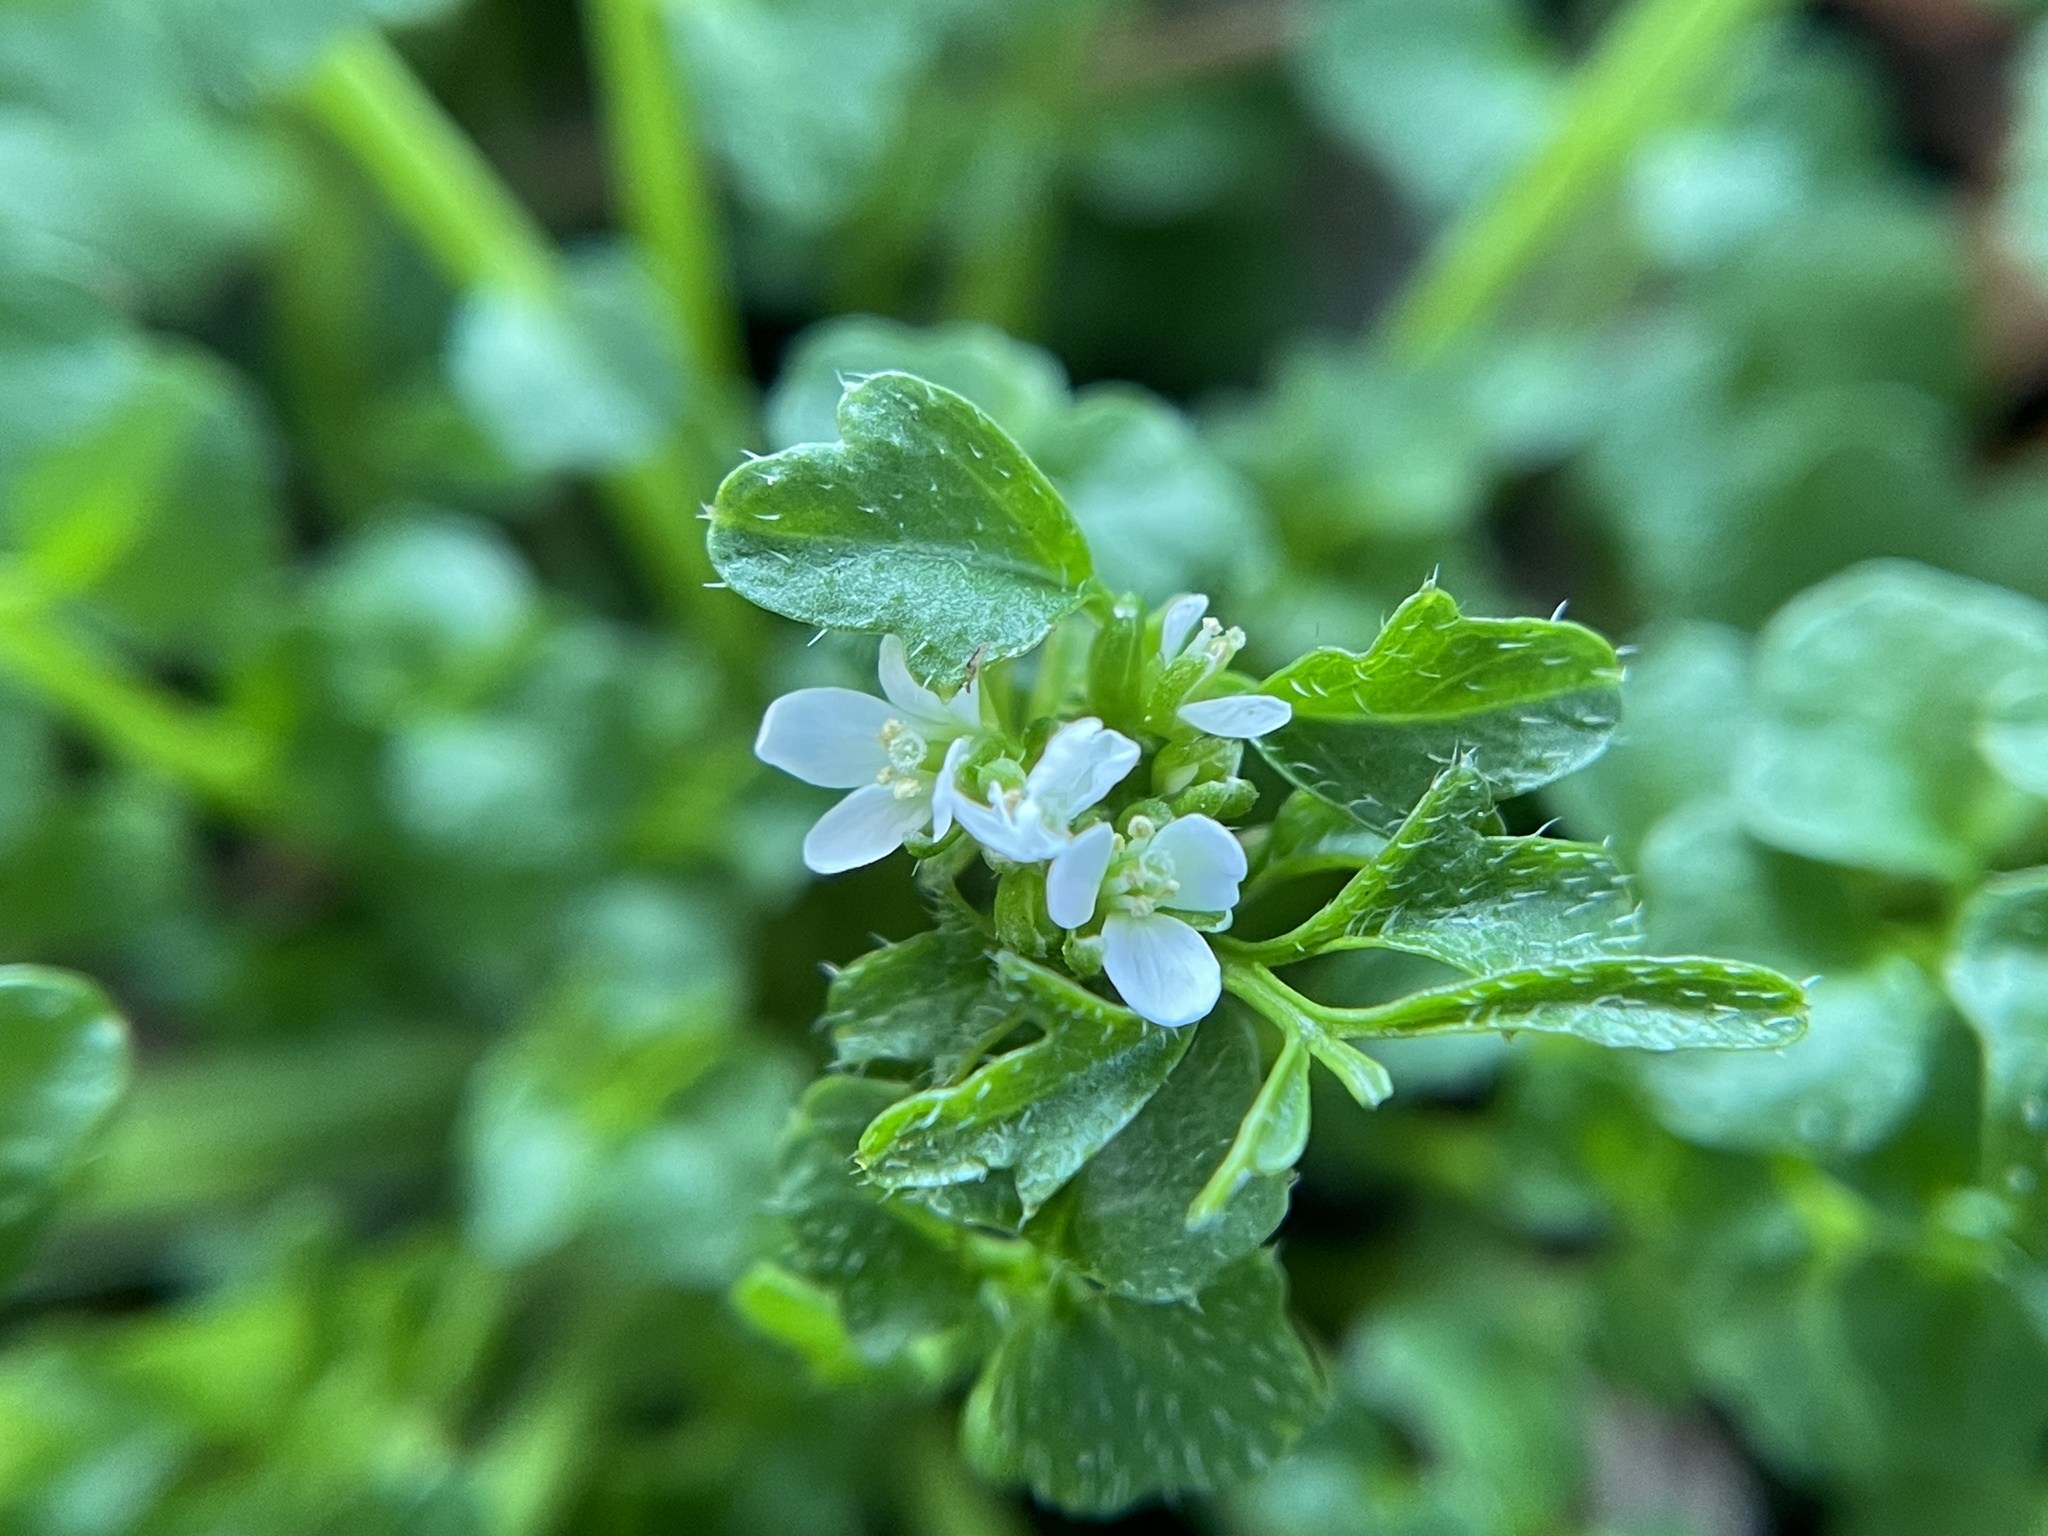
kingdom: Plantae
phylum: Tracheophyta
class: Magnoliopsida
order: Brassicales
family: Brassicaceae
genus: Cardamine
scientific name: Cardamine hirsuta
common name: Hairy bittercress
